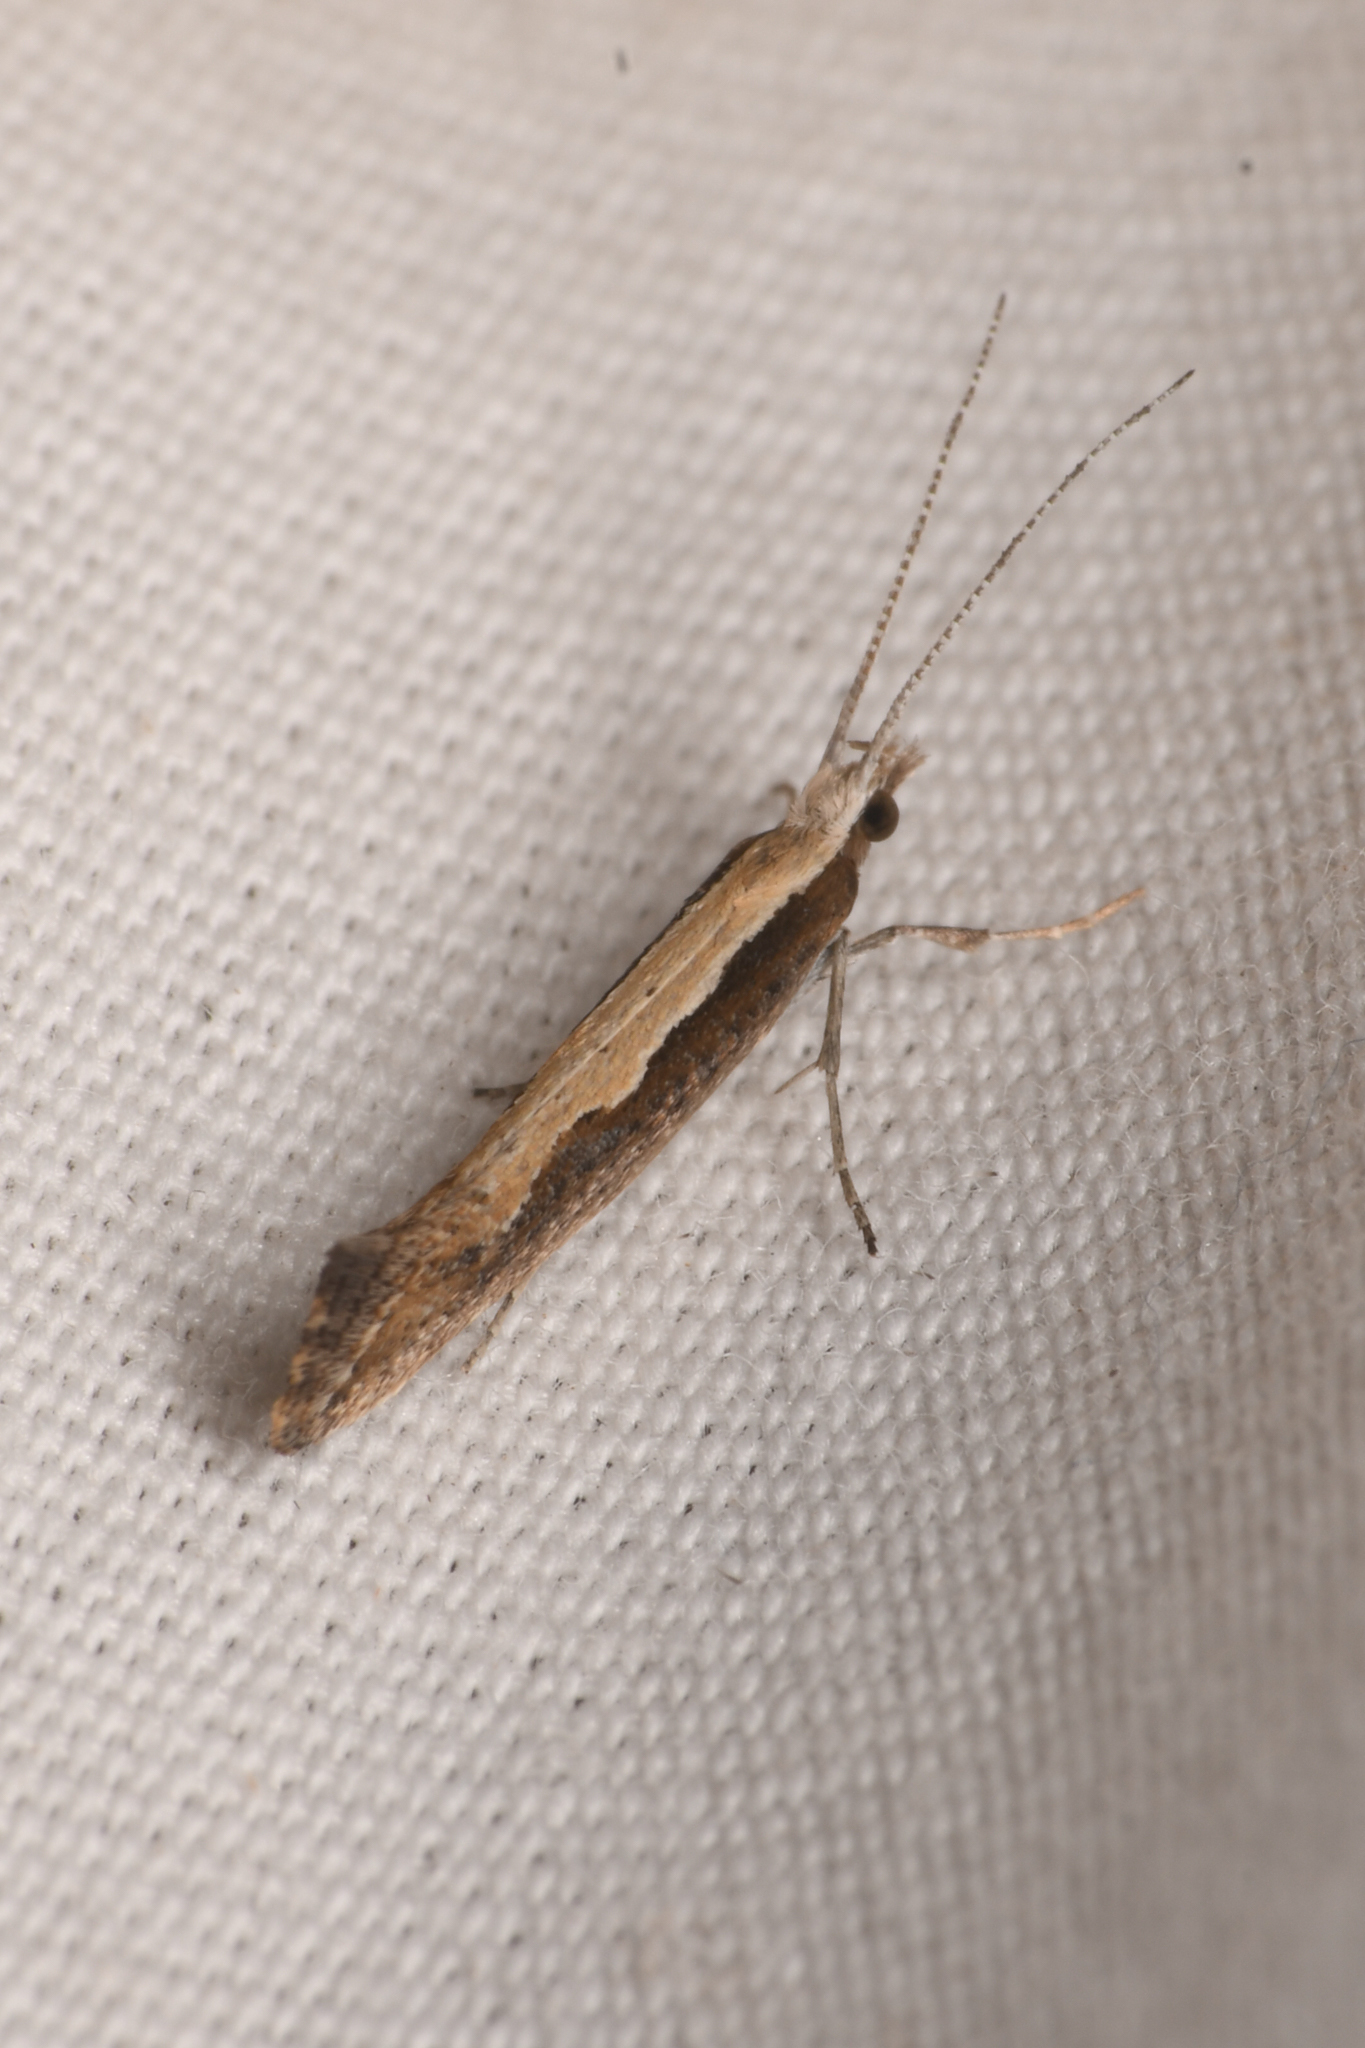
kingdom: Animalia
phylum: Arthropoda
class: Insecta
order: Lepidoptera
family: Plutellidae
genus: Plutella
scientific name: Plutella xylostella
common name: Diamond-back moth
